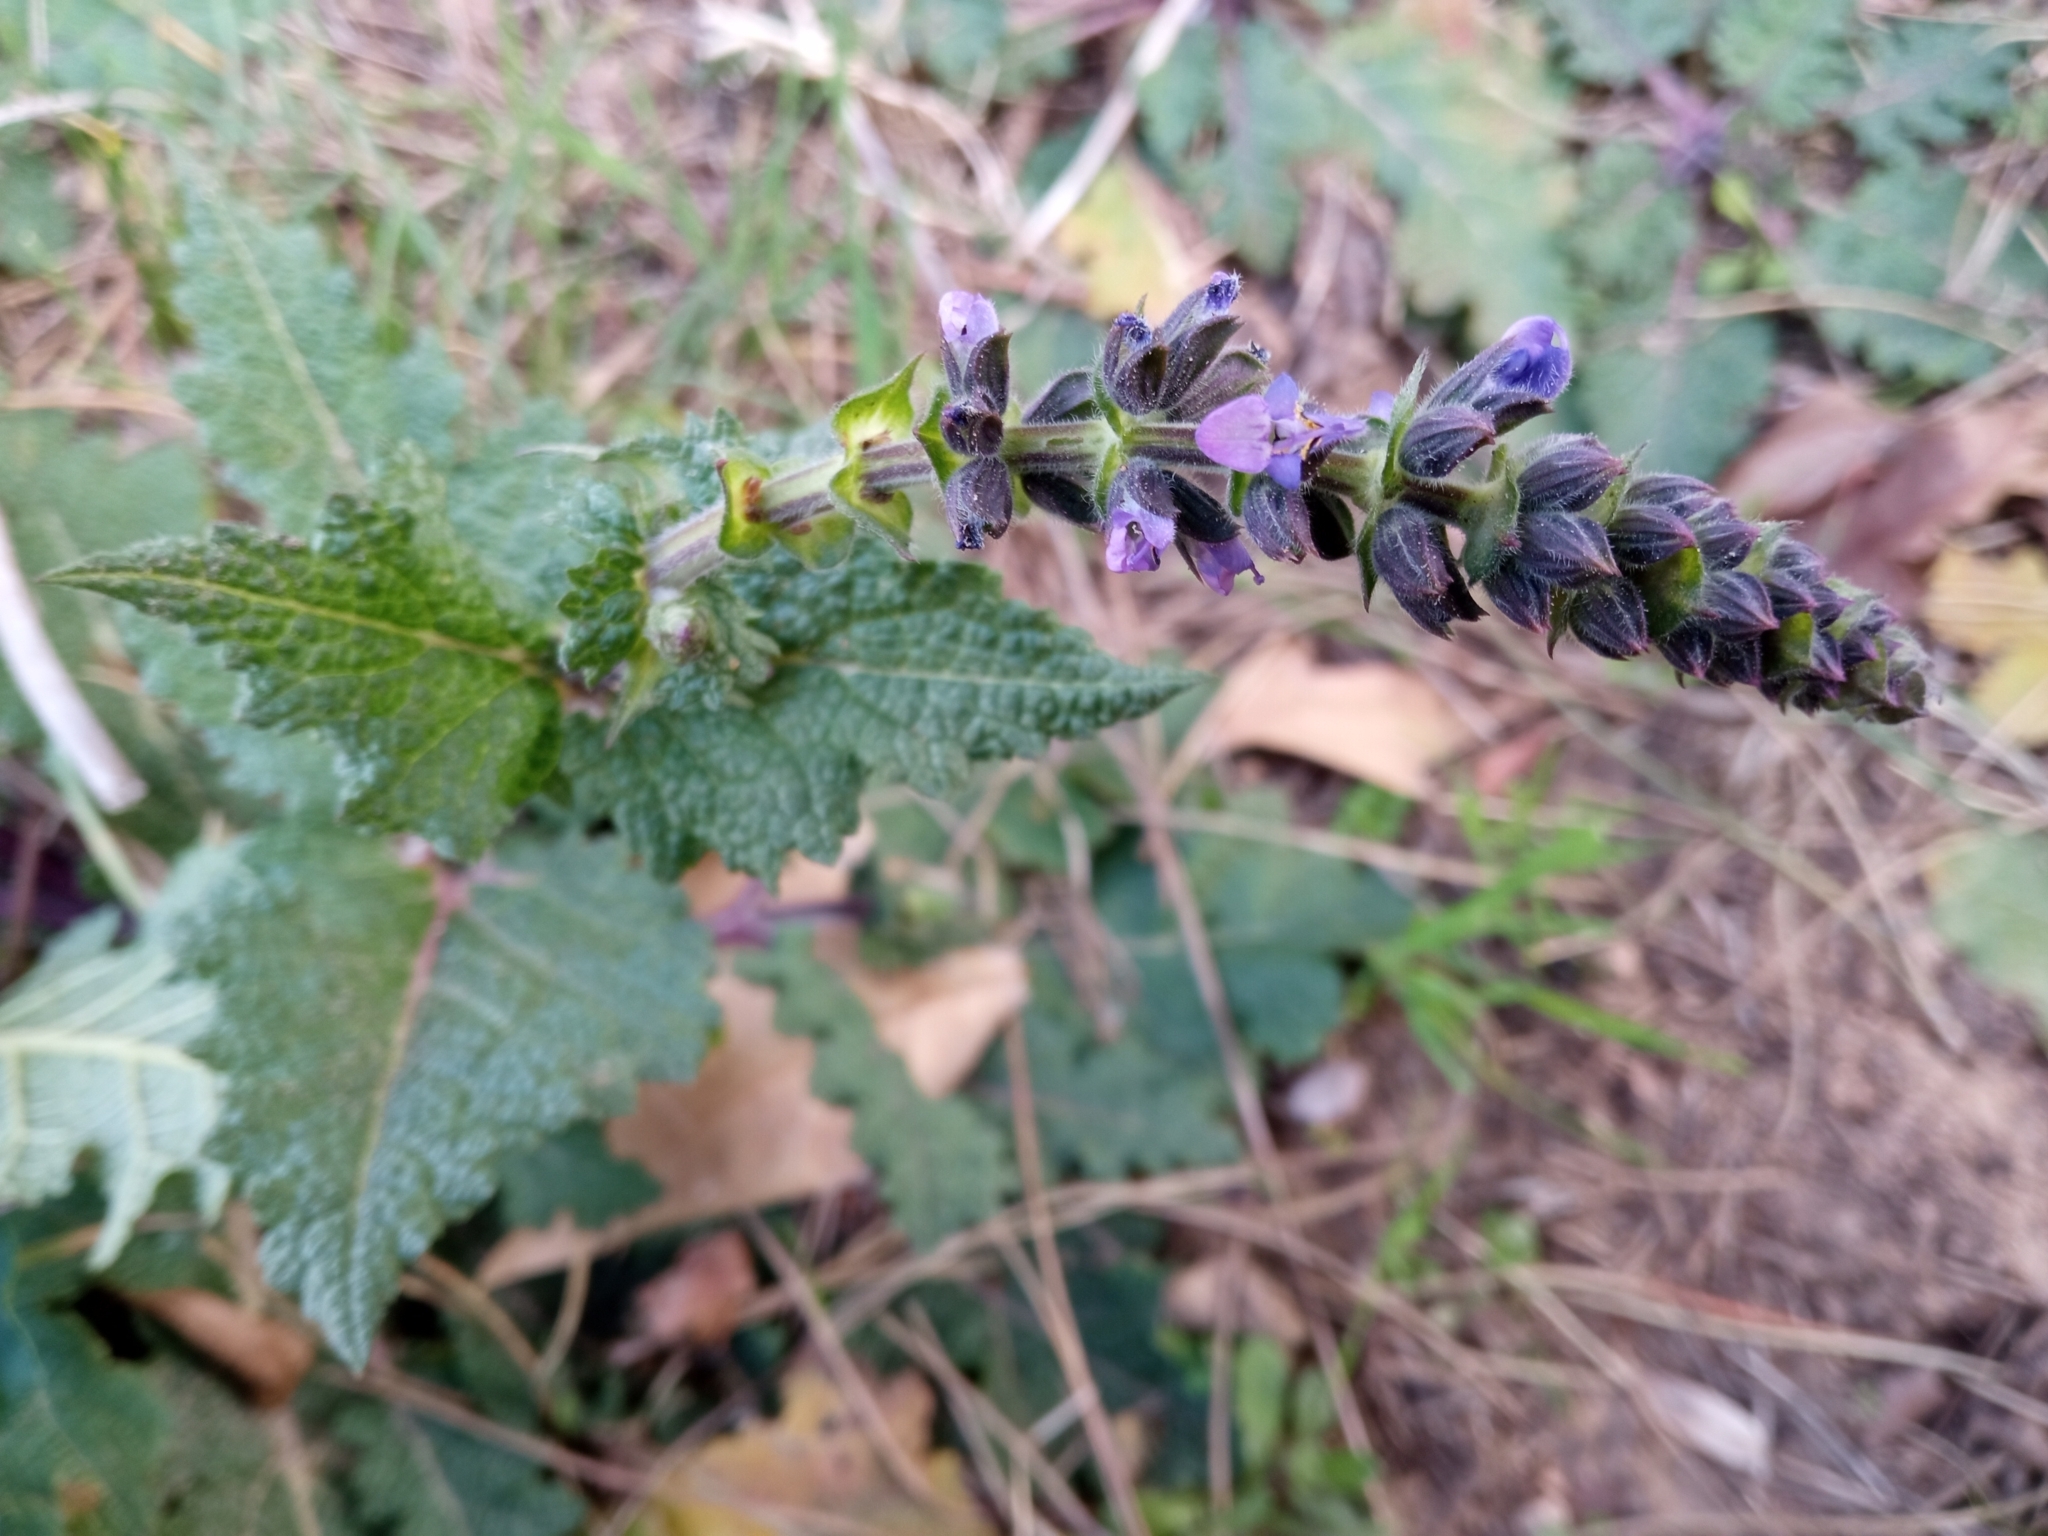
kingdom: Plantae
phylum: Tracheophyta
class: Magnoliopsida
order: Lamiales
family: Lamiaceae
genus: Salvia
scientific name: Salvia verbenaca
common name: Wild clary
